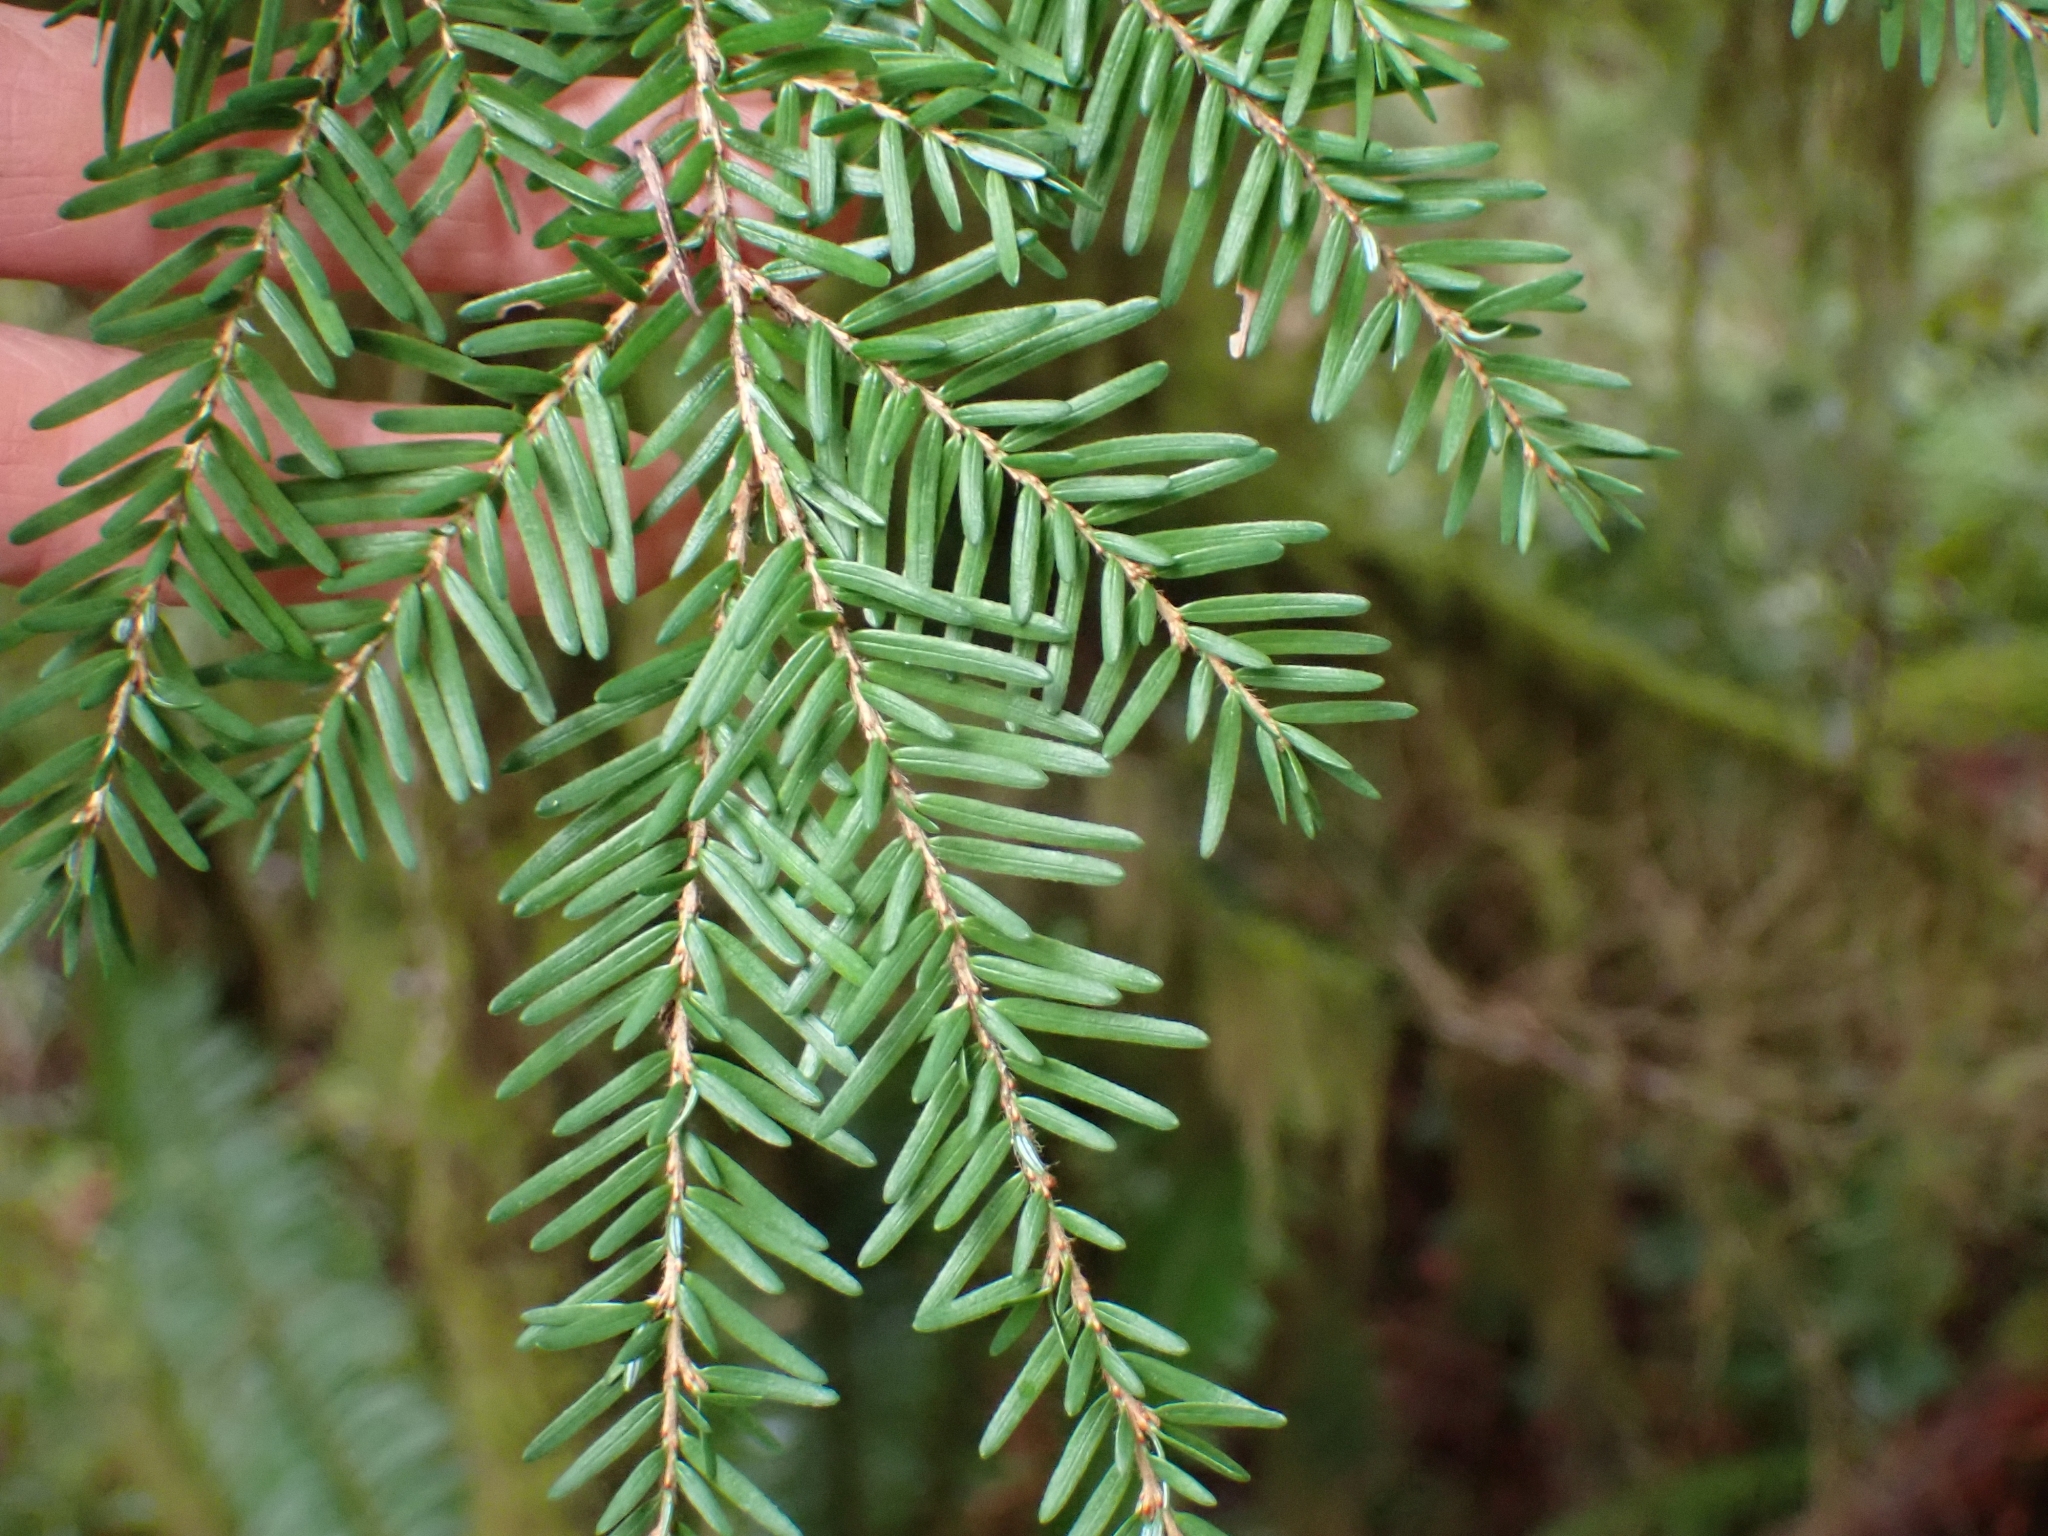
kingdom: Plantae
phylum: Tracheophyta
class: Pinopsida
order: Pinales
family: Pinaceae
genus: Tsuga
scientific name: Tsuga heterophylla
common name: Western hemlock
